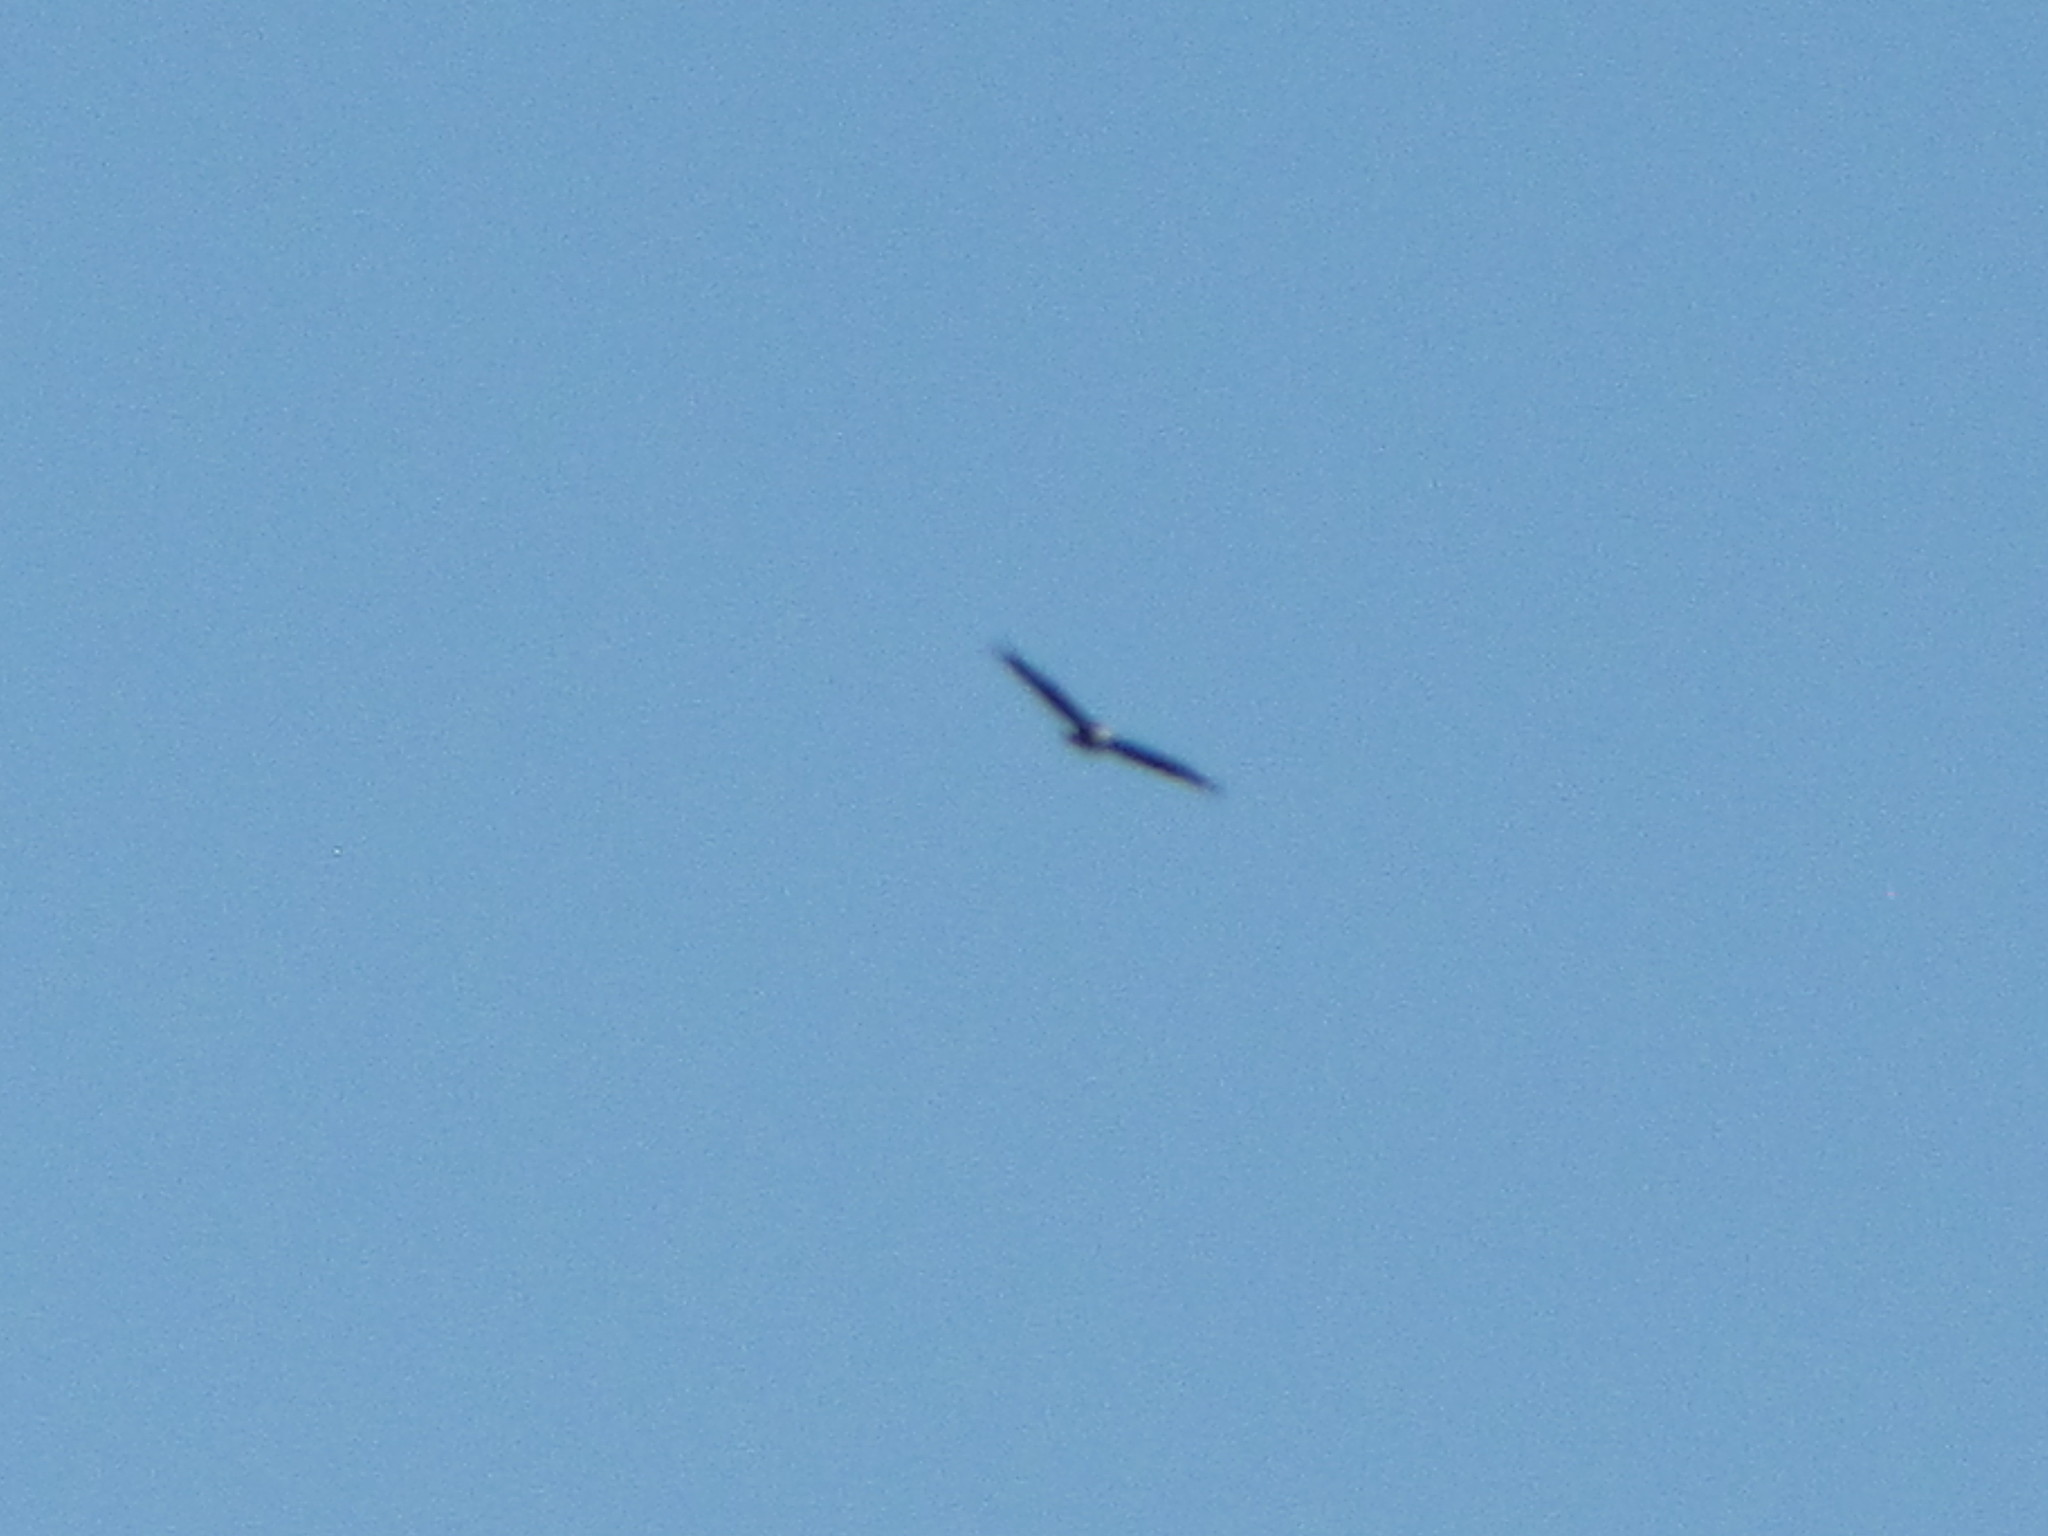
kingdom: Animalia
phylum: Chordata
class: Aves
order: Accipitriformes
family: Accipitridae
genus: Haliaeetus
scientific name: Haliaeetus leucocephalus
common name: Bald eagle
